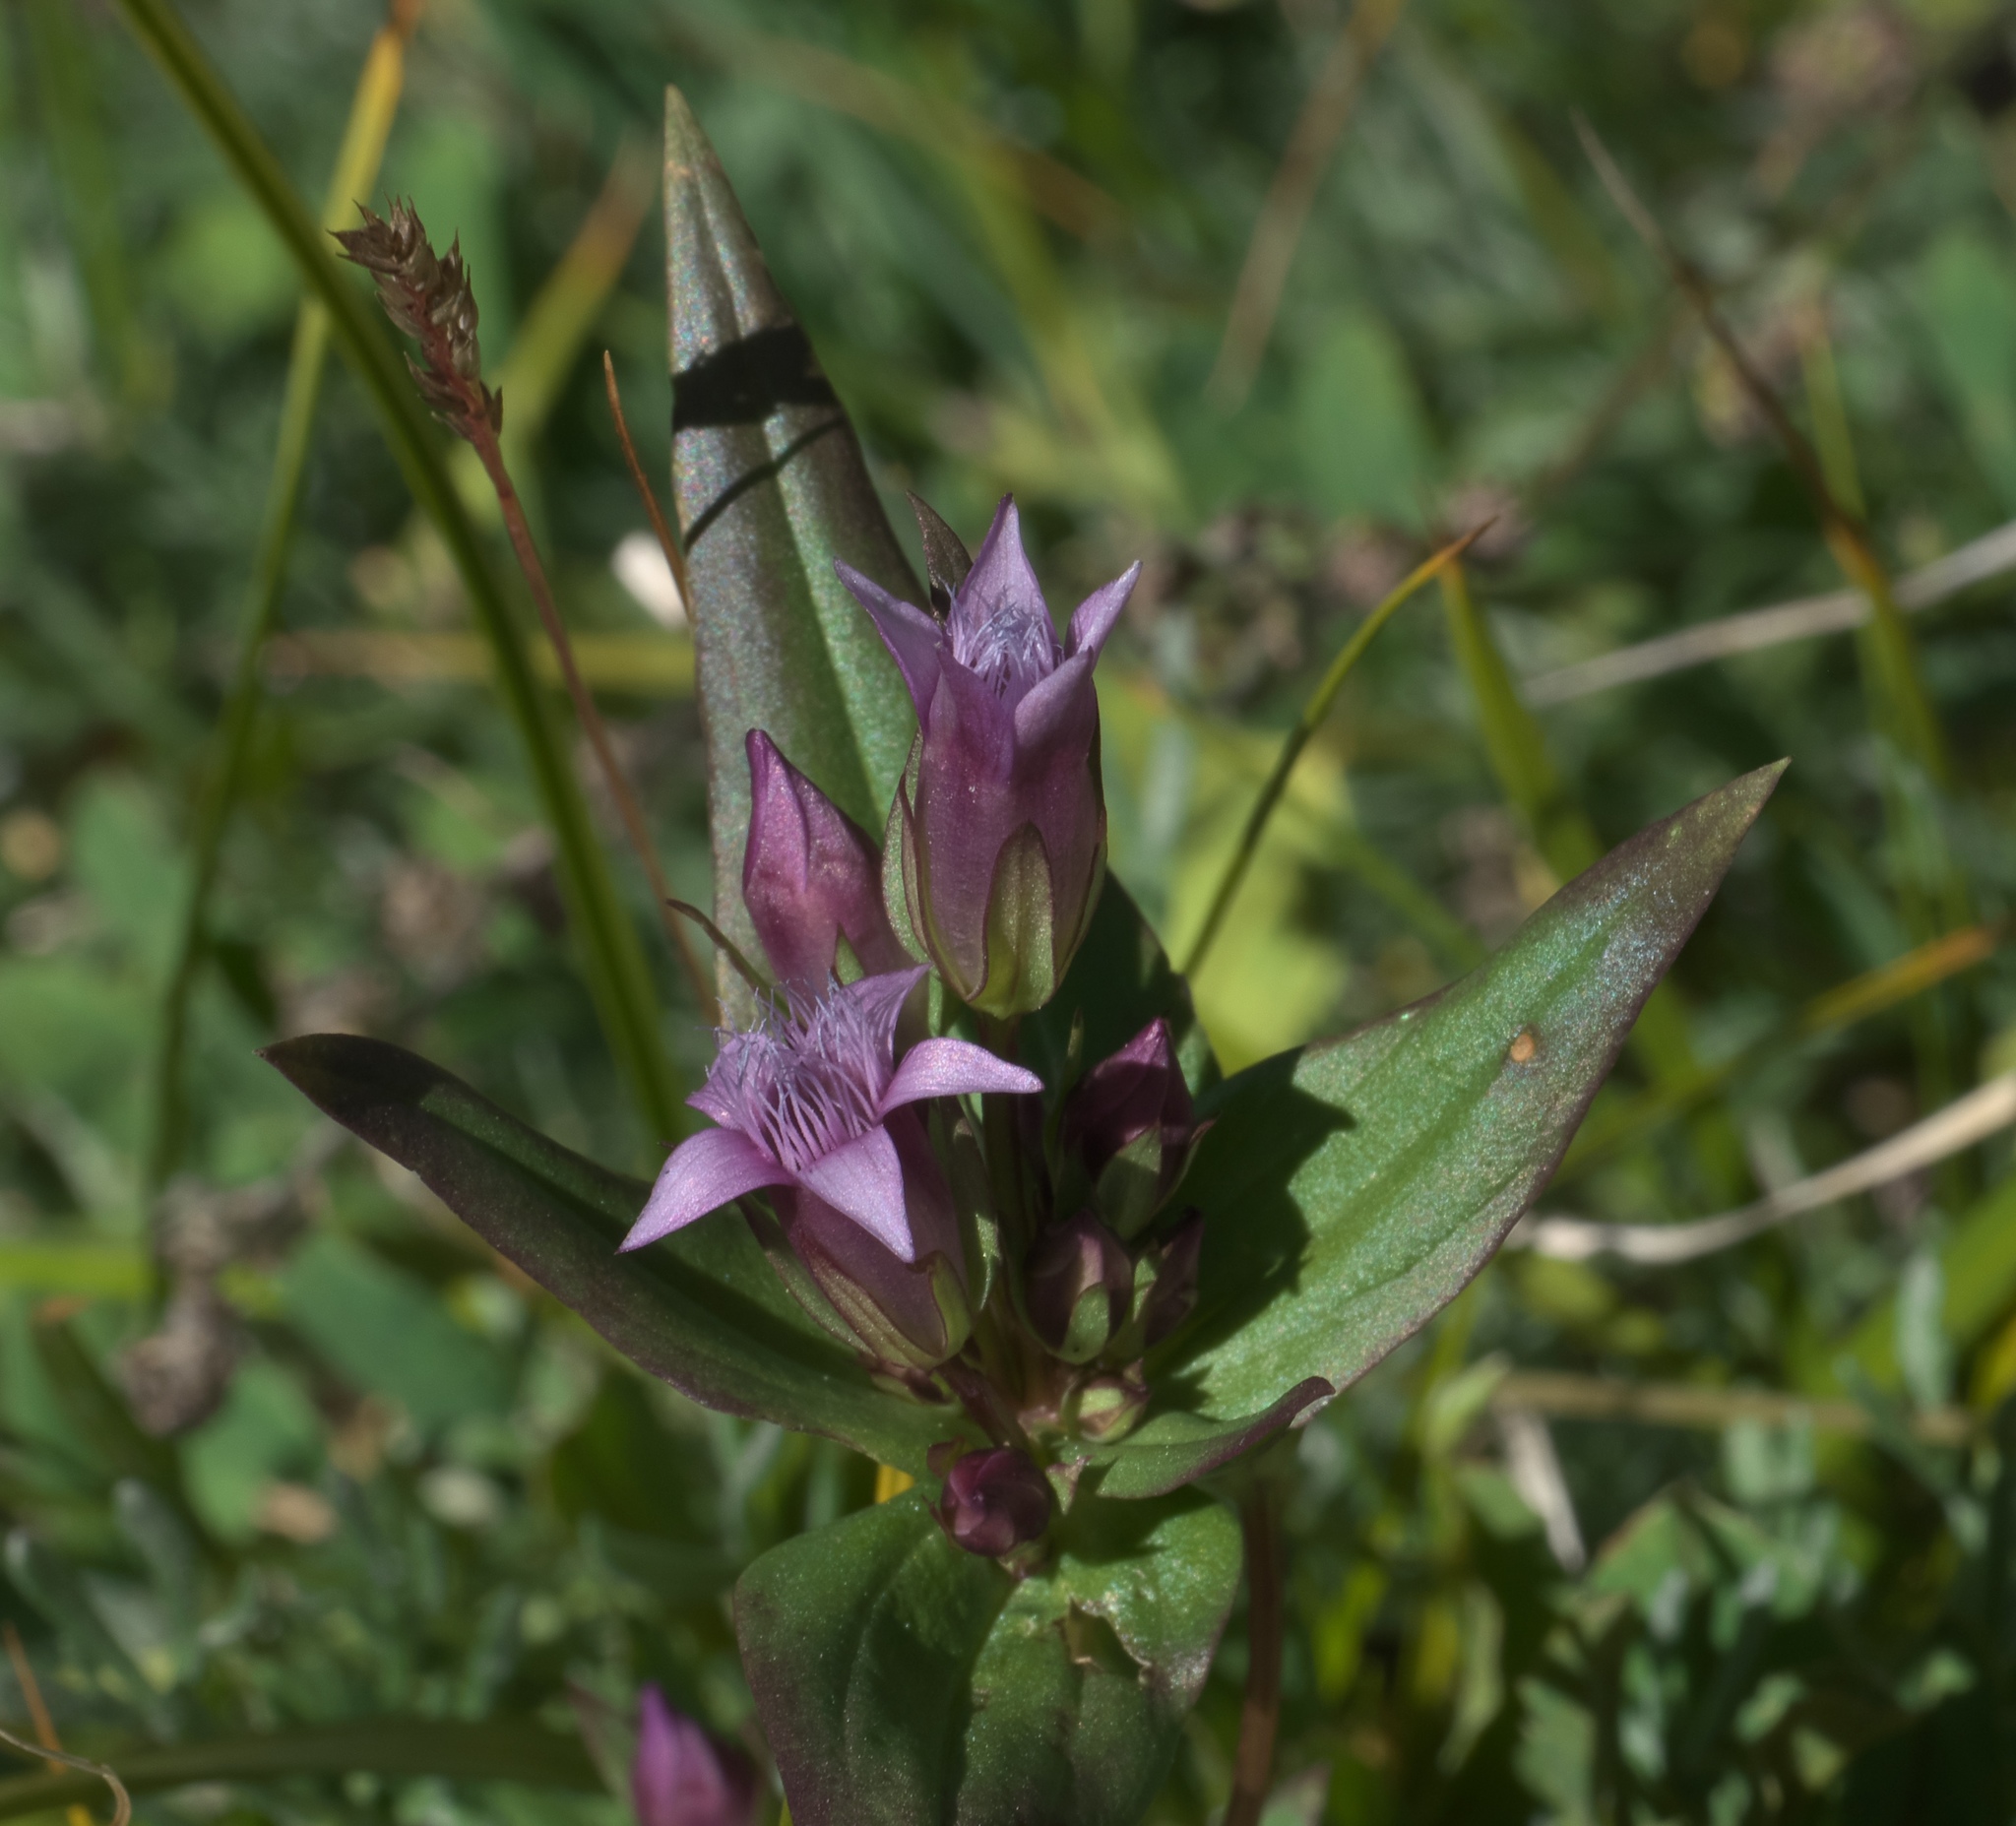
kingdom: Plantae
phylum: Tracheophyta
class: Magnoliopsida
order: Gentianales
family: Gentianaceae
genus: Gentianella
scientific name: Gentianella amarella
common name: Autumn gentian
